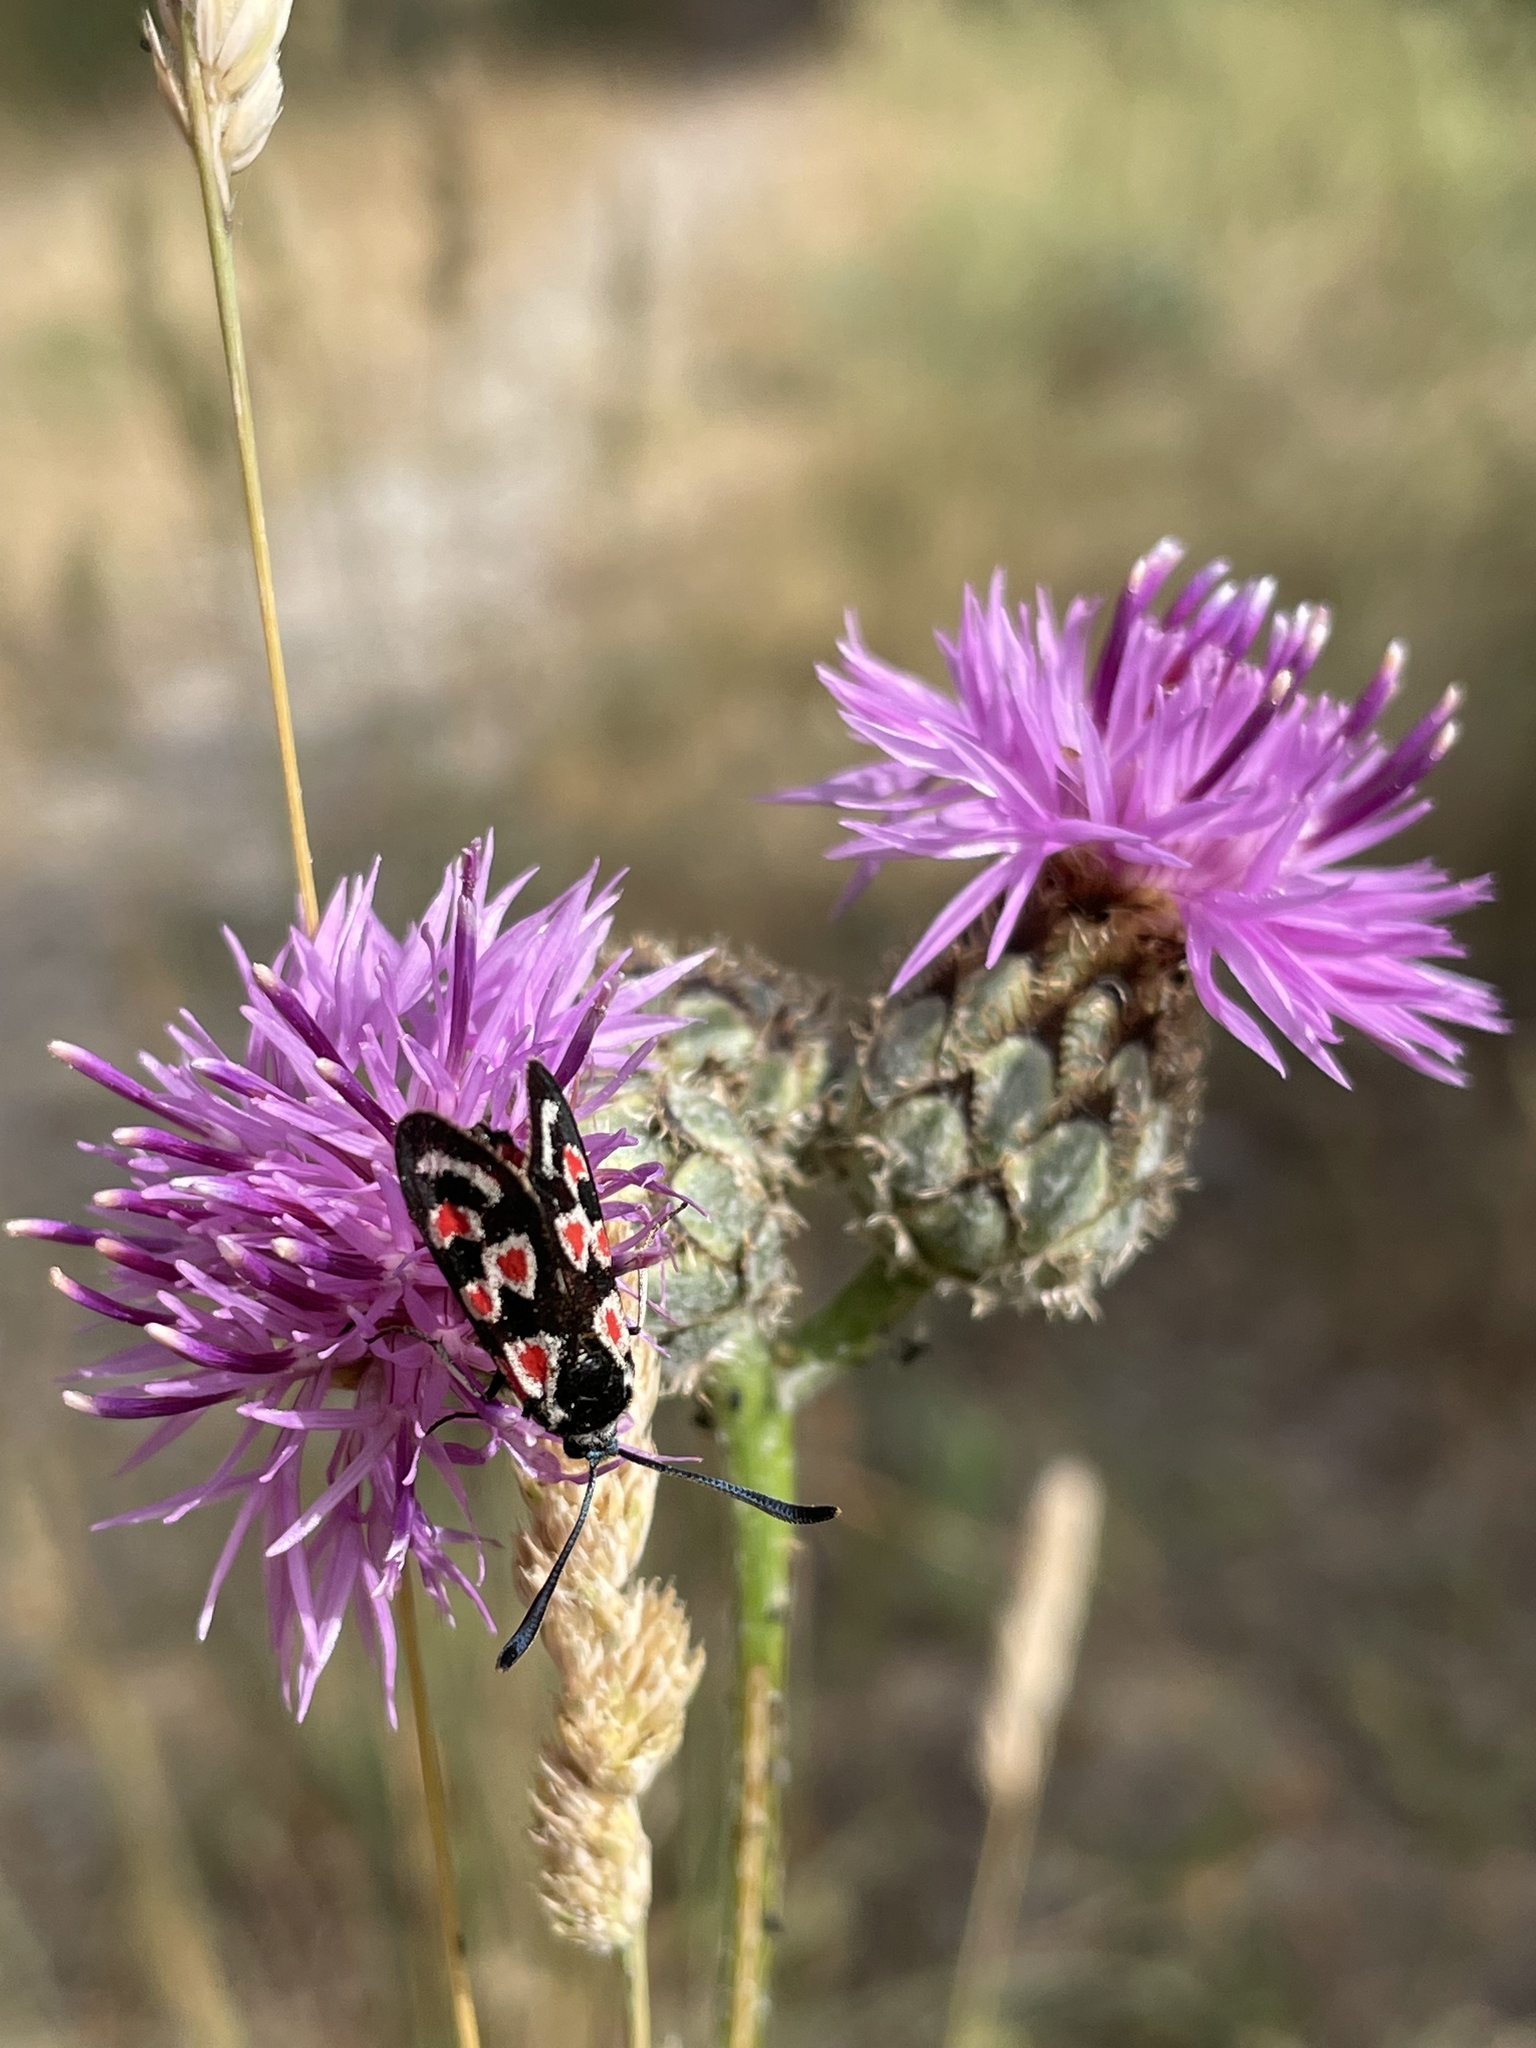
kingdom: Animalia
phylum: Arthropoda
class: Insecta
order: Lepidoptera
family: Zygaenidae
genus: Zygaena
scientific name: Zygaena occitanica
